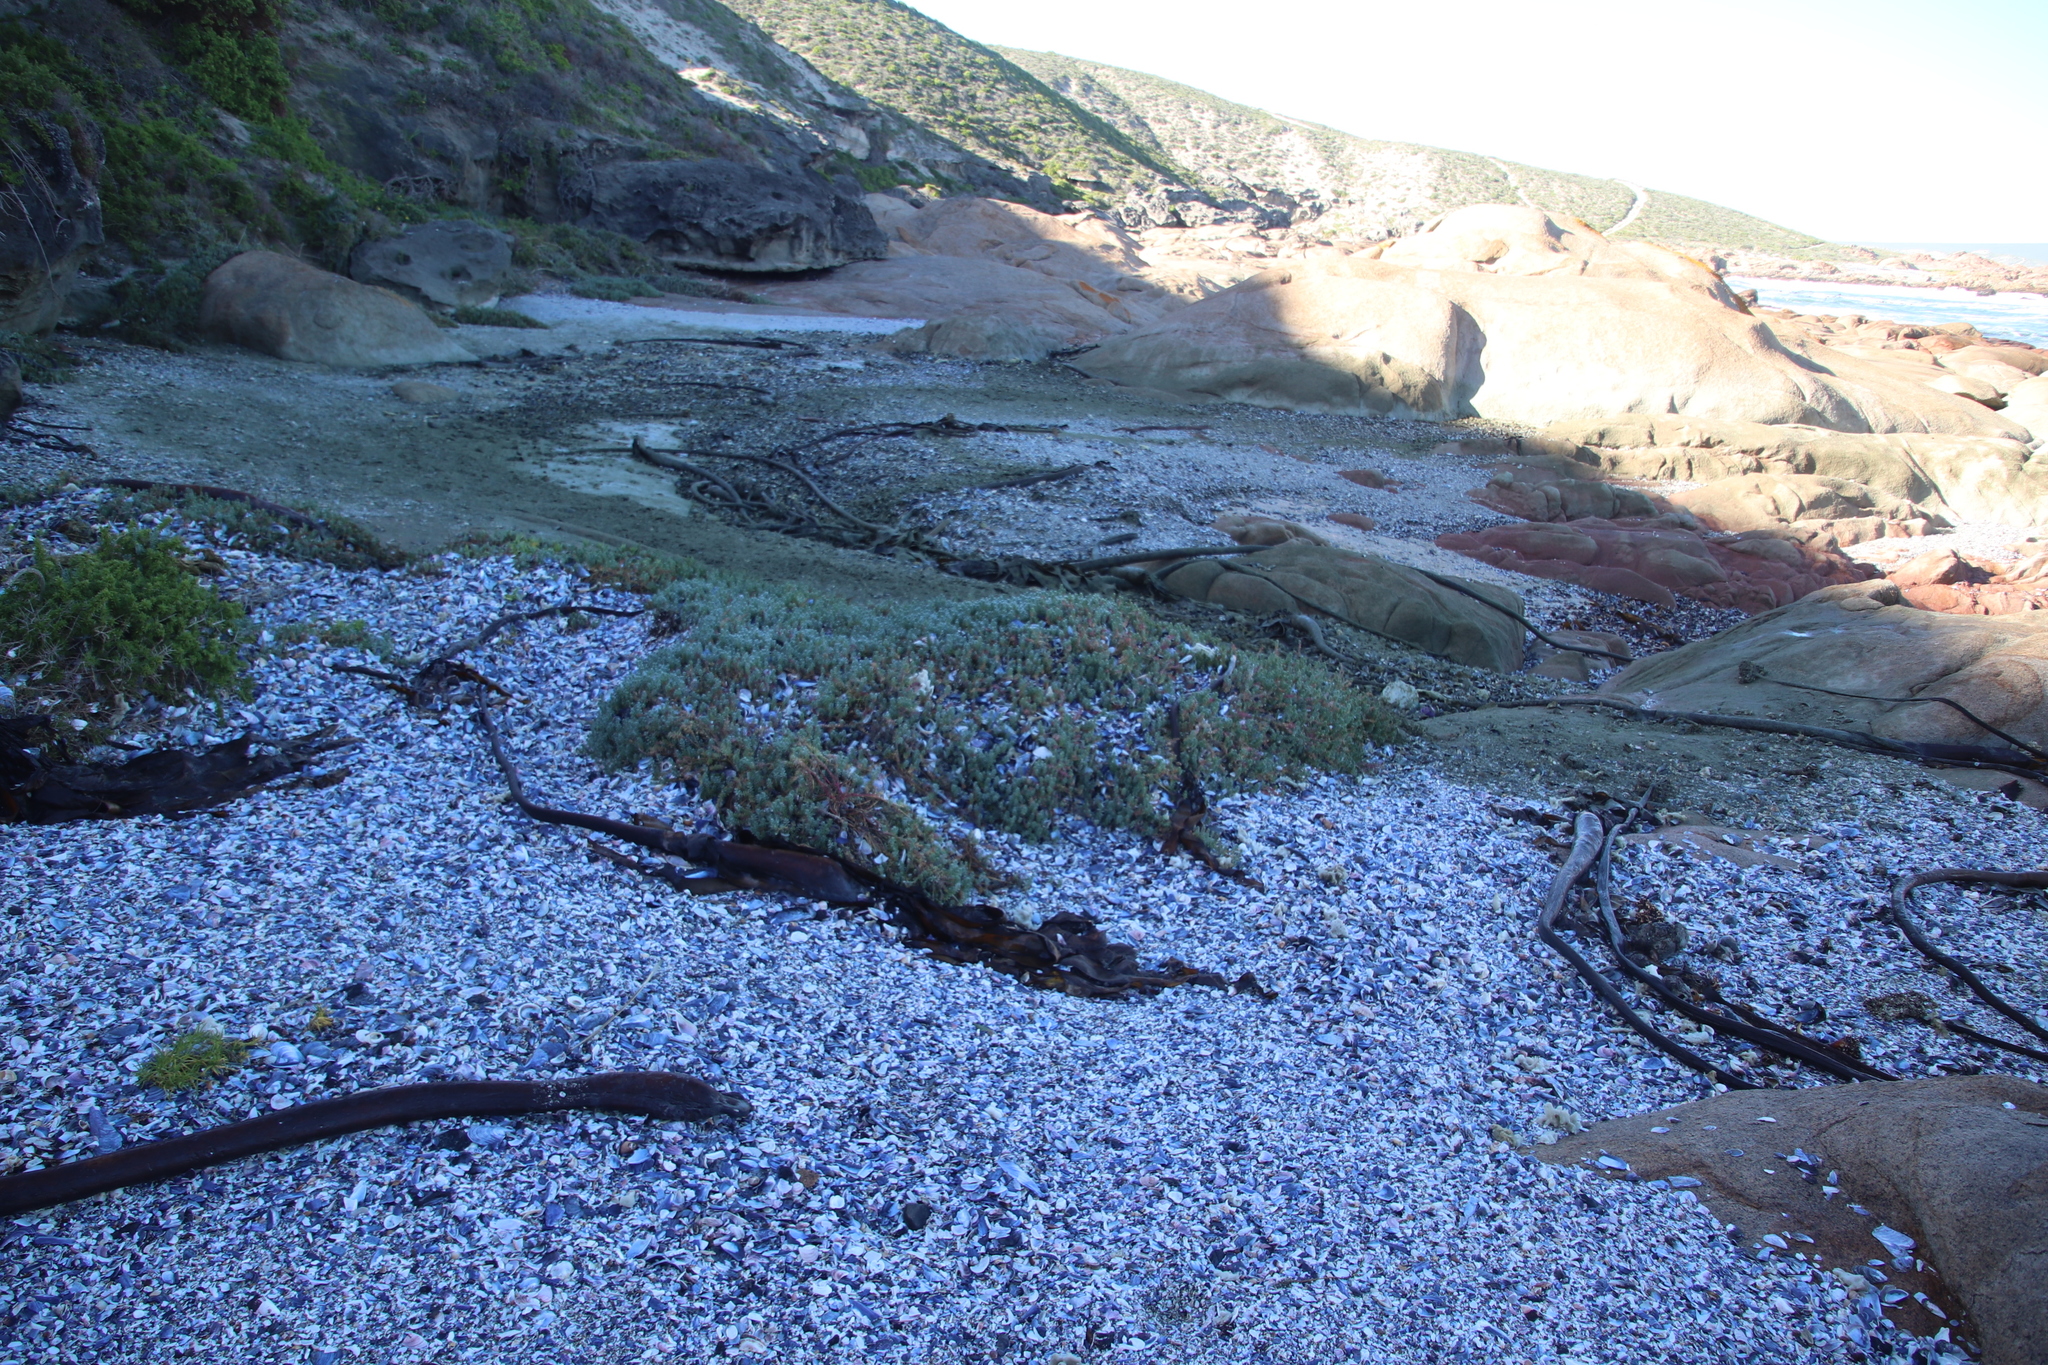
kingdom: Plantae
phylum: Tracheophyta
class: Magnoliopsida
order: Caryophyllales
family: Amaranthaceae
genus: Chenolea
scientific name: Chenolea diffusa
